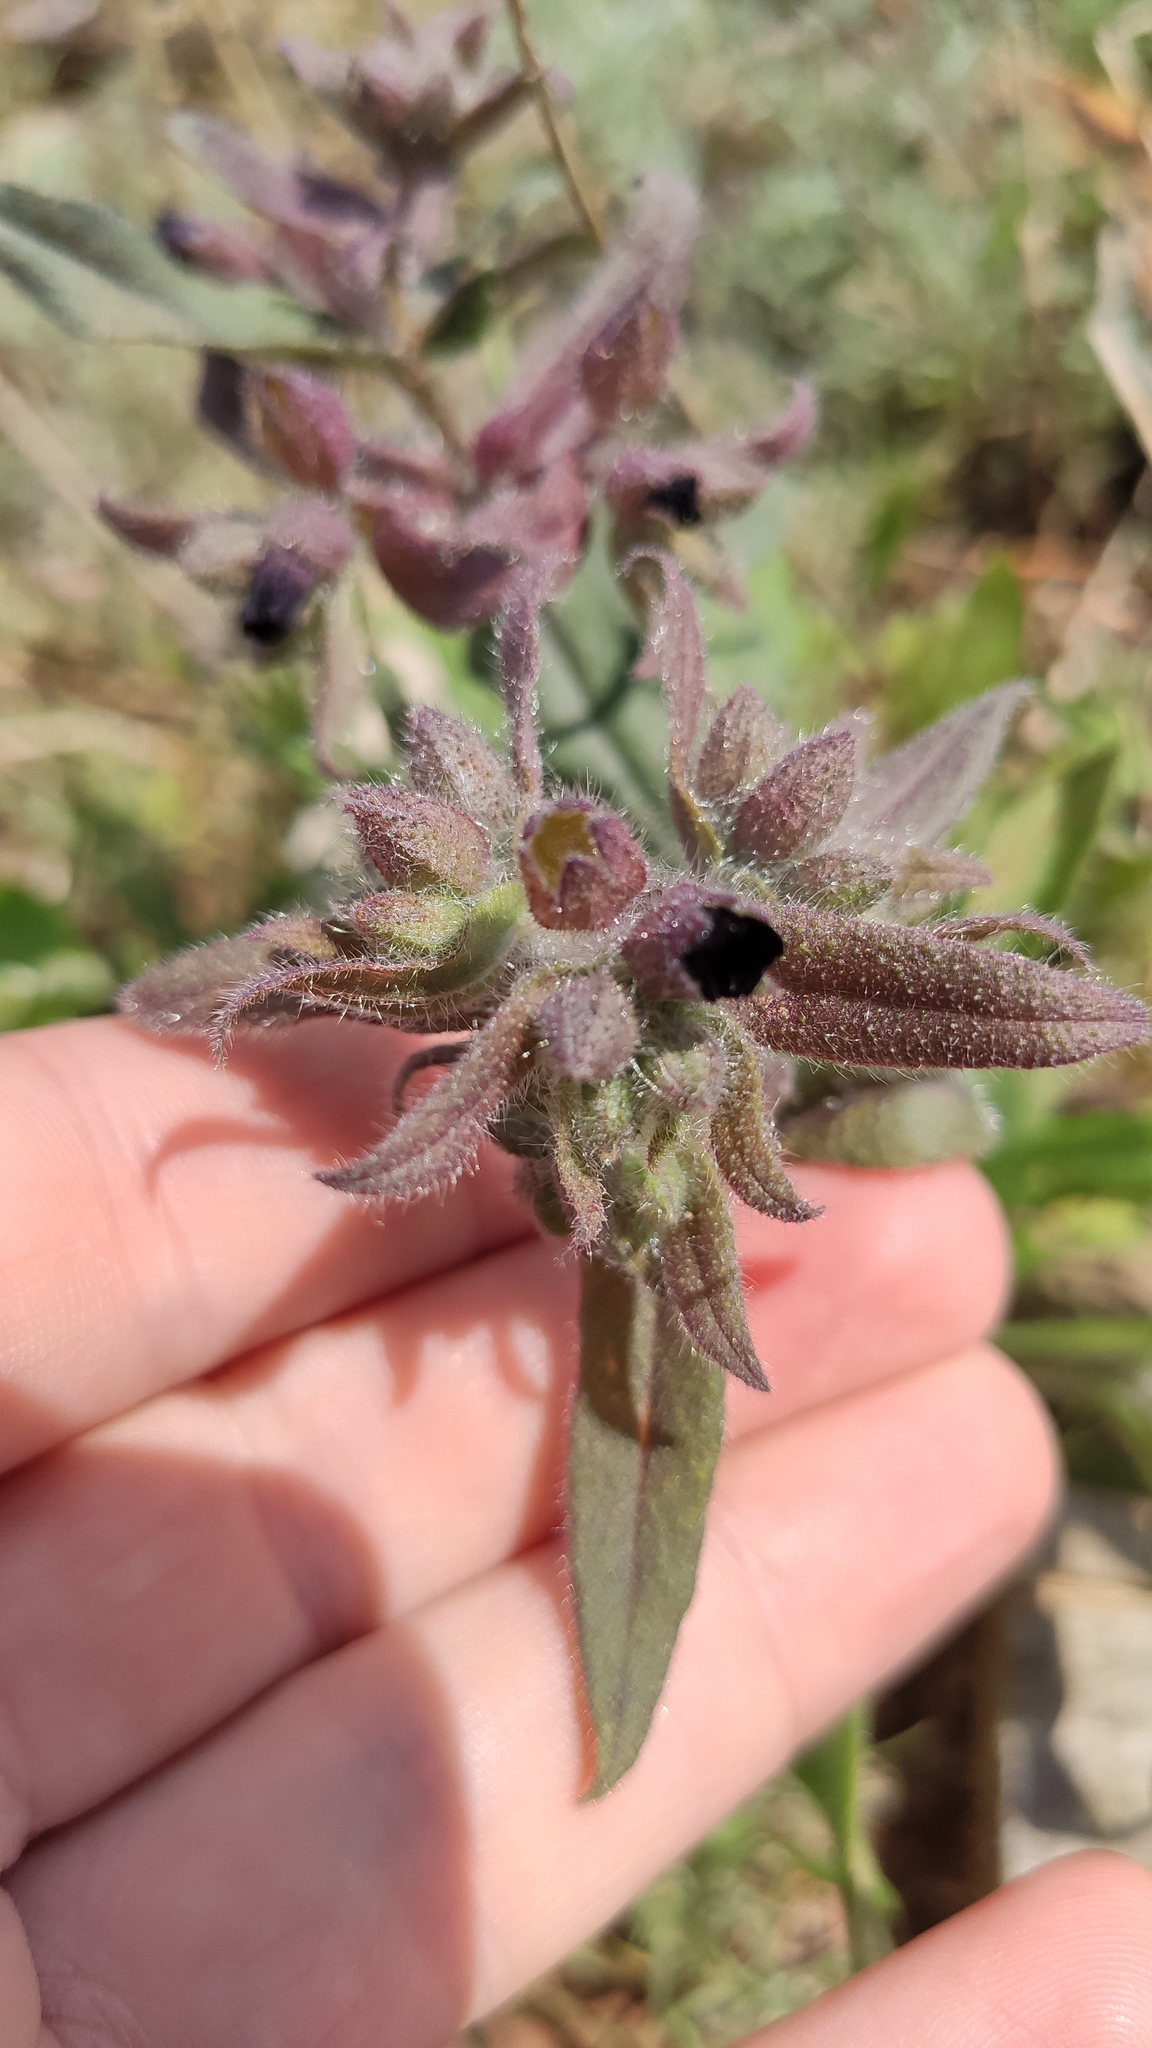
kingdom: Plantae
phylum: Tracheophyta
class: Magnoliopsida
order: Boraginales
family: Boraginaceae
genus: Nonea
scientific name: Nonea pulla
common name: Brown nonea
